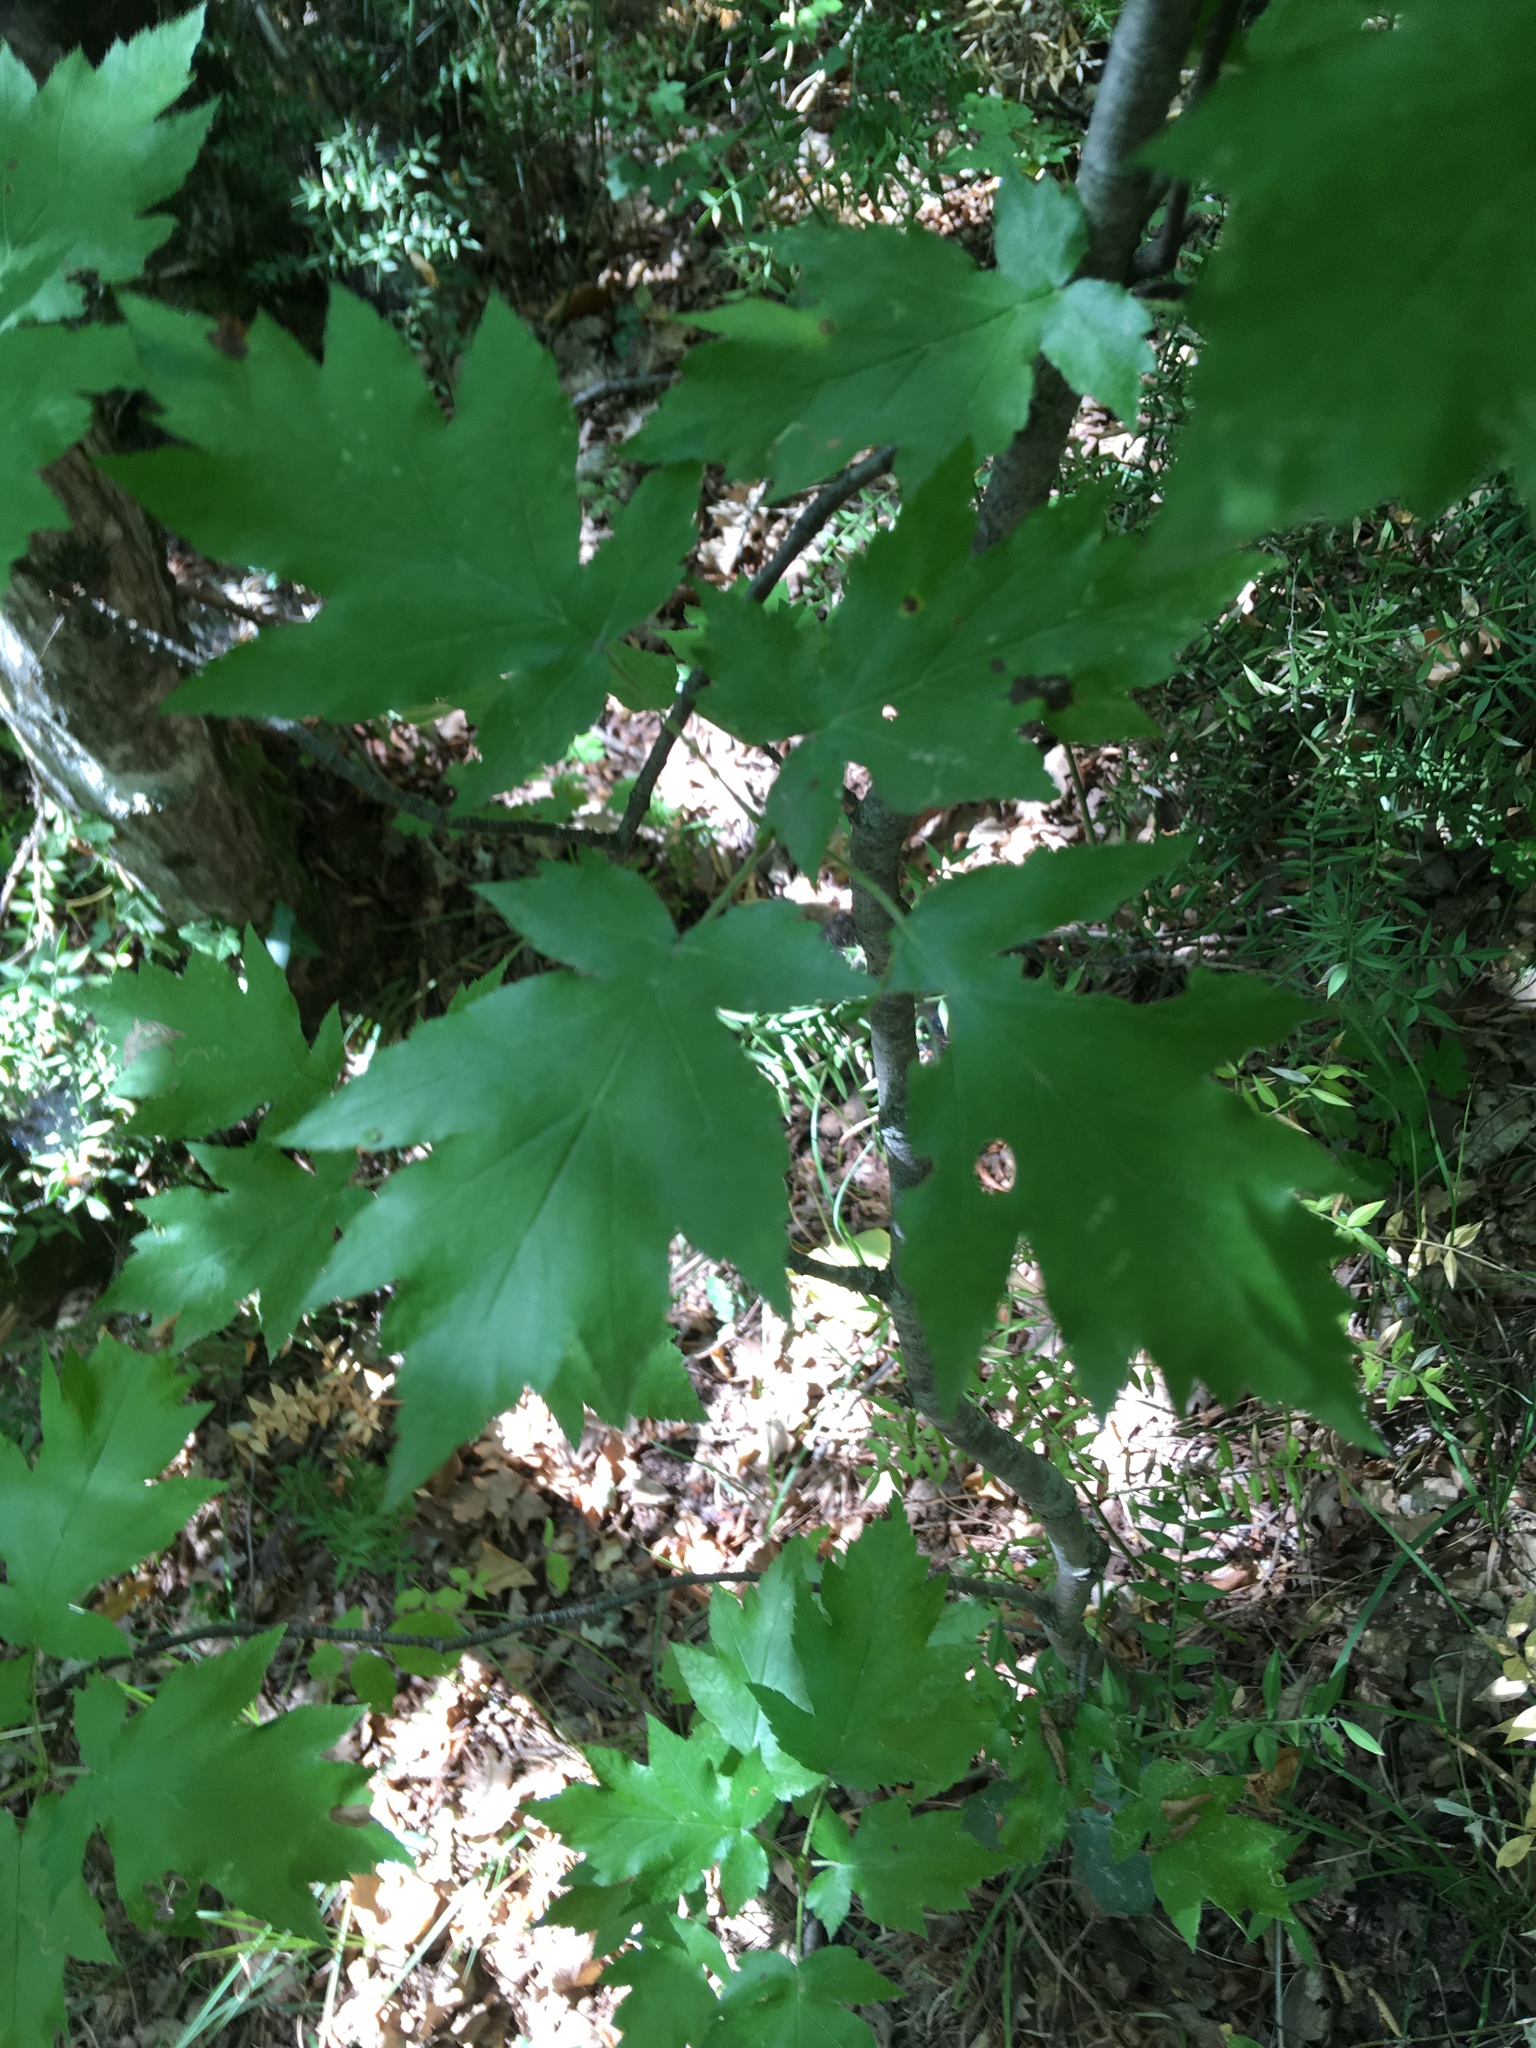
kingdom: Plantae
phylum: Tracheophyta
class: Magnoliopsida
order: Rosales
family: Rosaceae
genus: Torminalis
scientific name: Torminalis glaberrima
